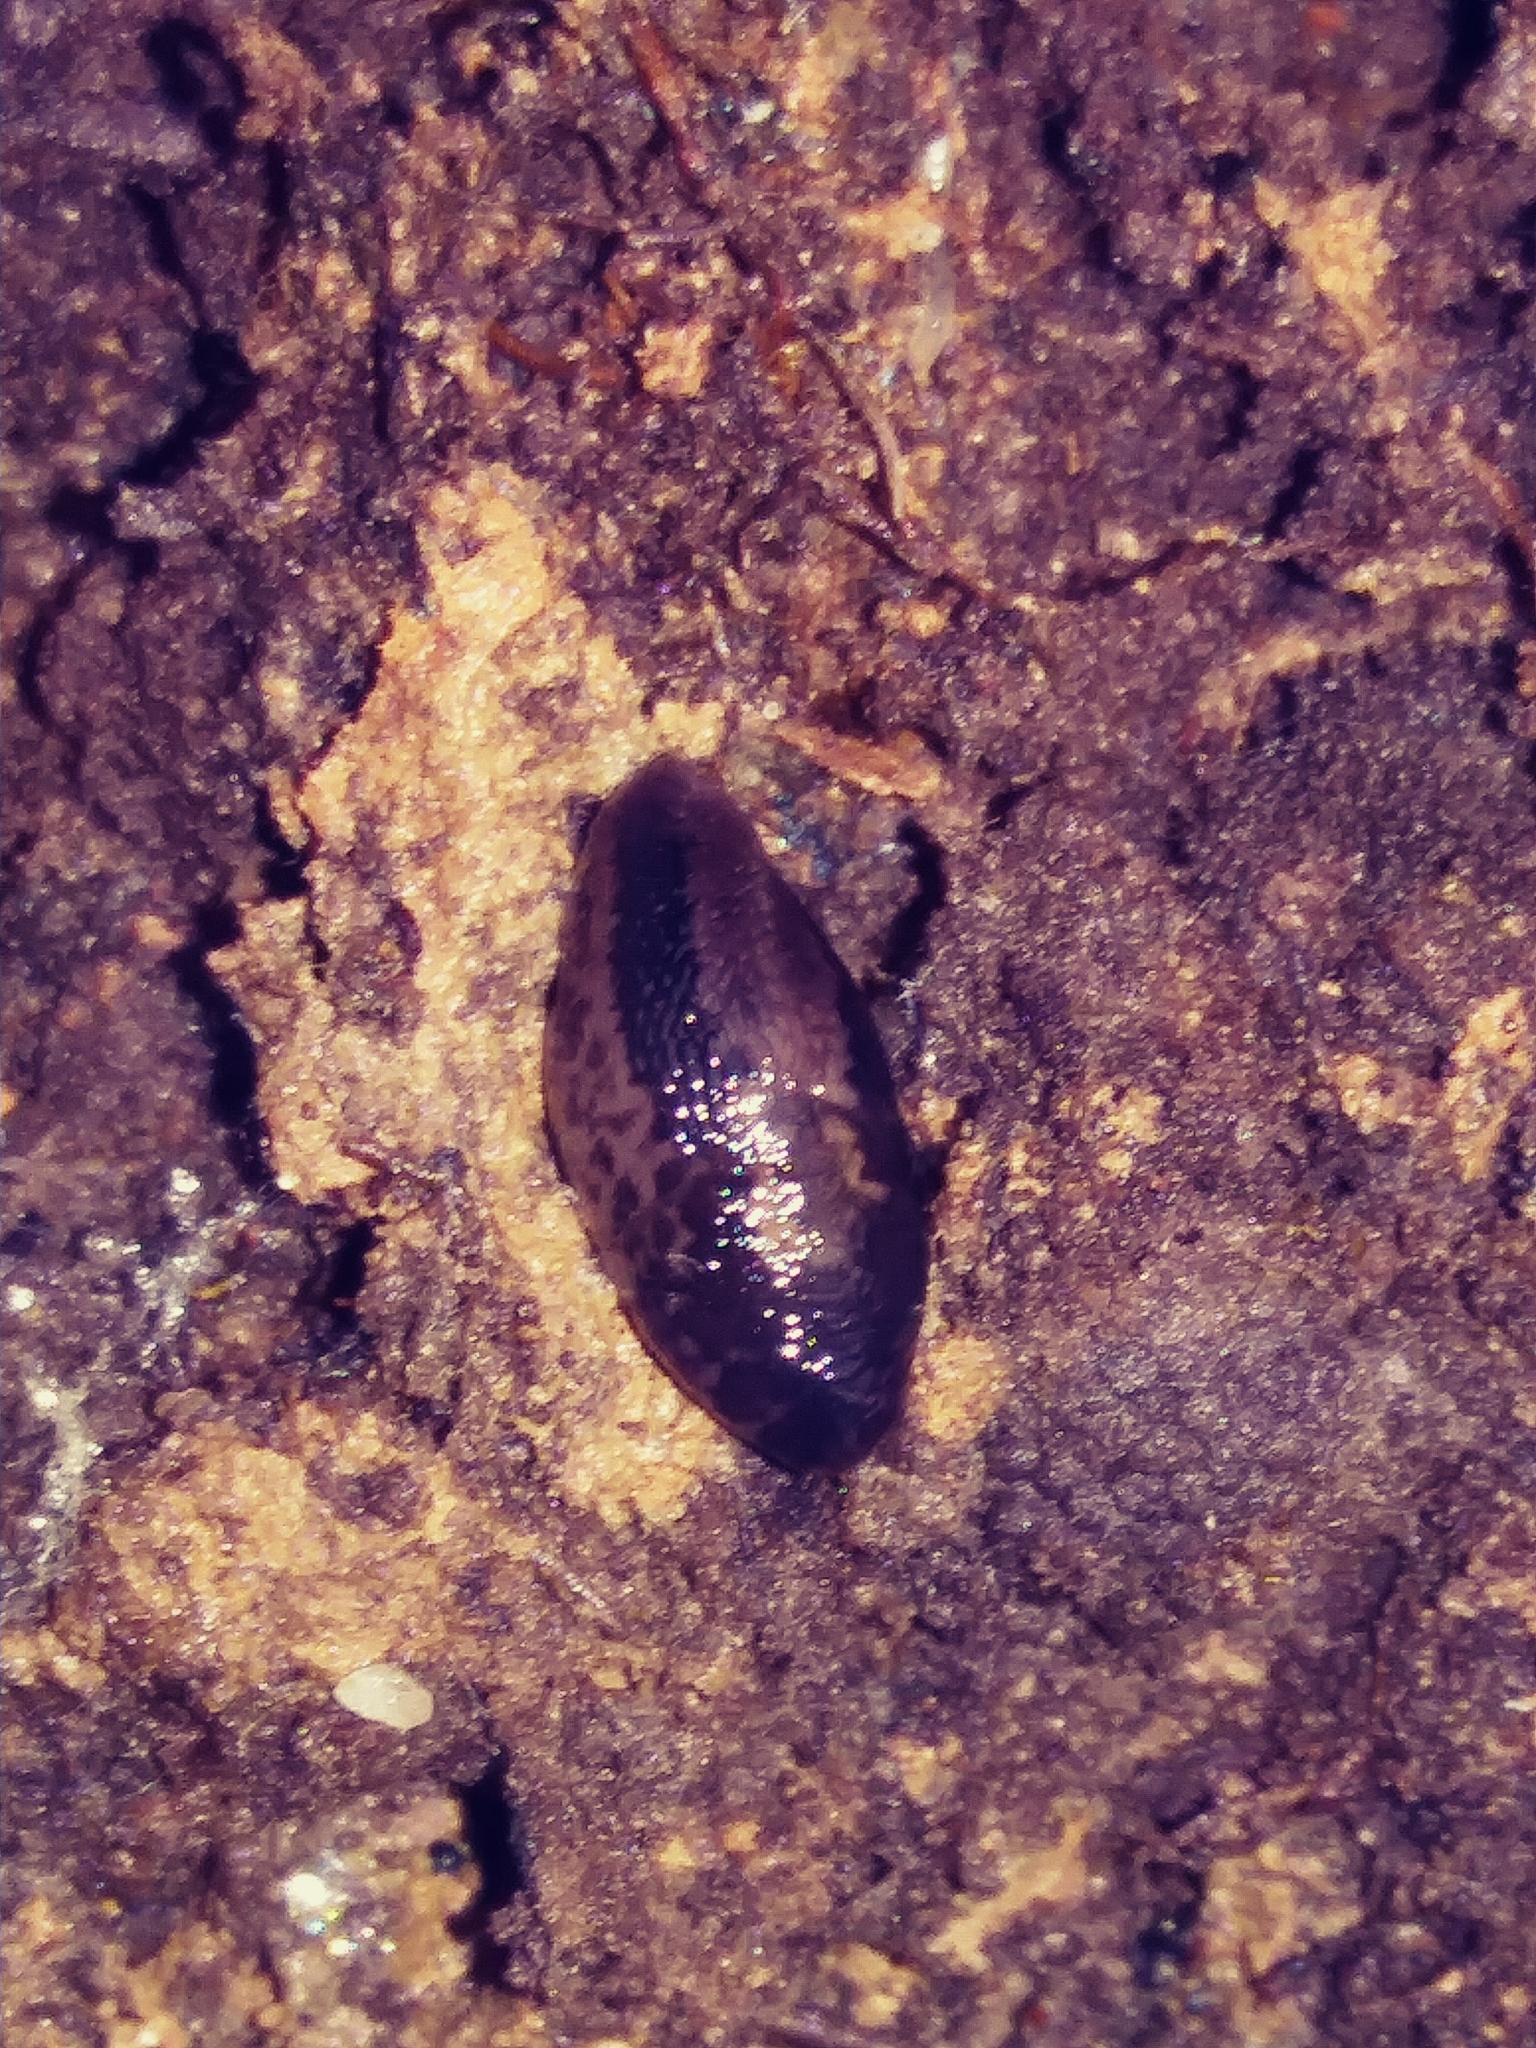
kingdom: Animalia
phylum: Mollusca
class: Gastropoda
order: Stylommatophora
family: Limacidae
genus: Limax
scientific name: Limax maximus
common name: Great grey slug
